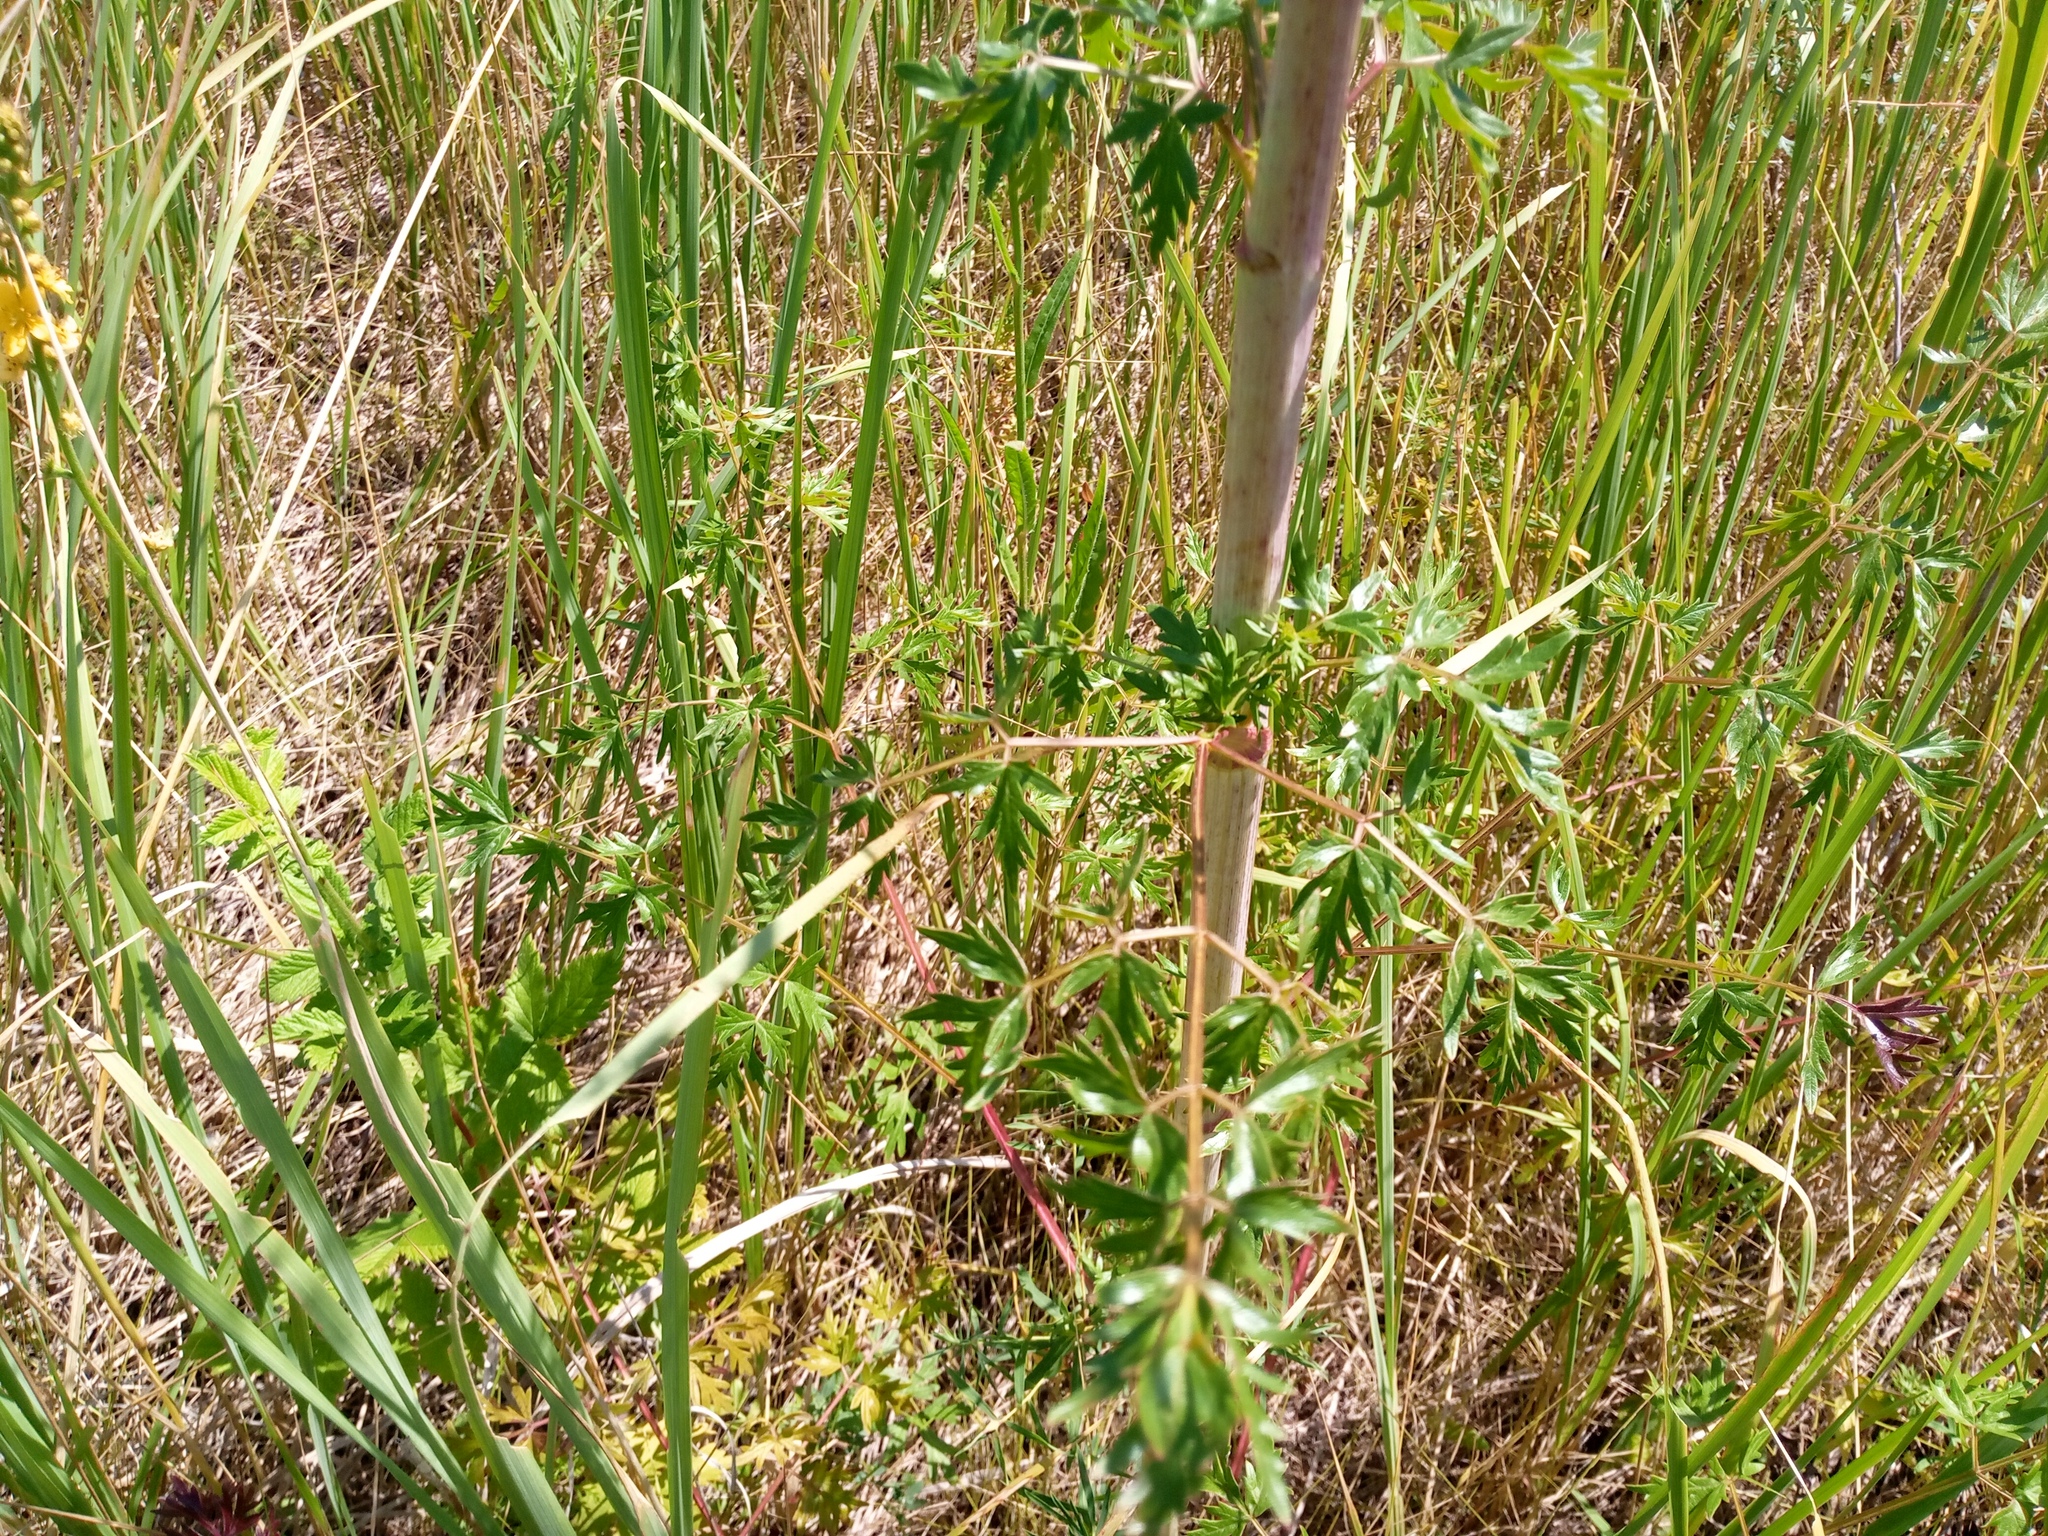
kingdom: Plantae
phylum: Tracheophyta
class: Magnoliopsida
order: Apiales
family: Apiaceae
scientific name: Apiaceae
